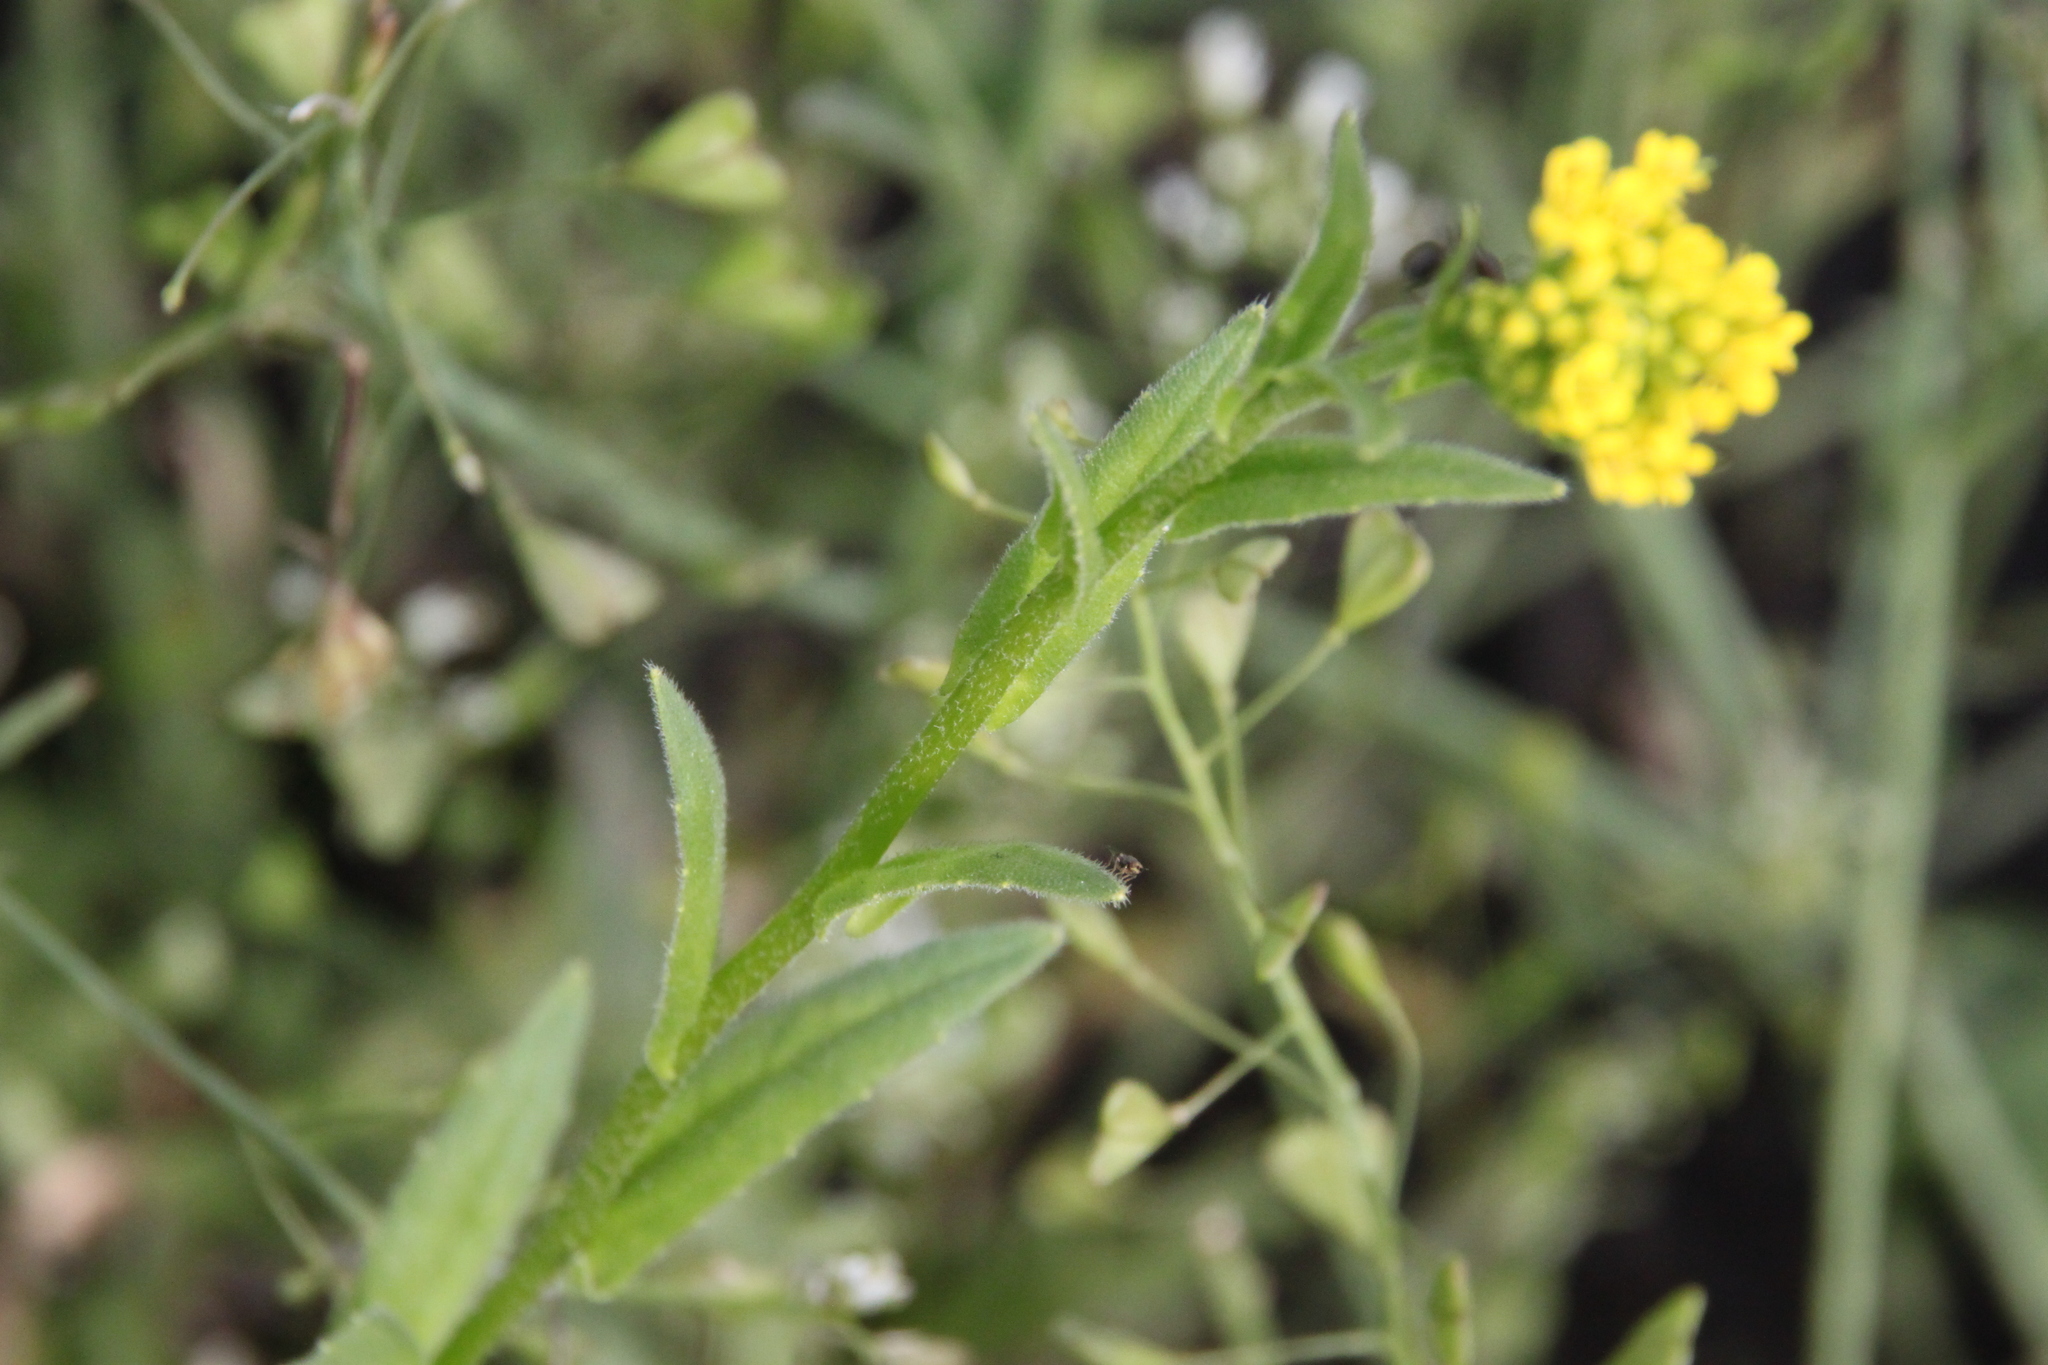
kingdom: Plantae
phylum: Tracheophyta
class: Magnoliopsida
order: Brassicales
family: Brassicaceae
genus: Neslia
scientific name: Neslia paniculata
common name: Ball mustard
